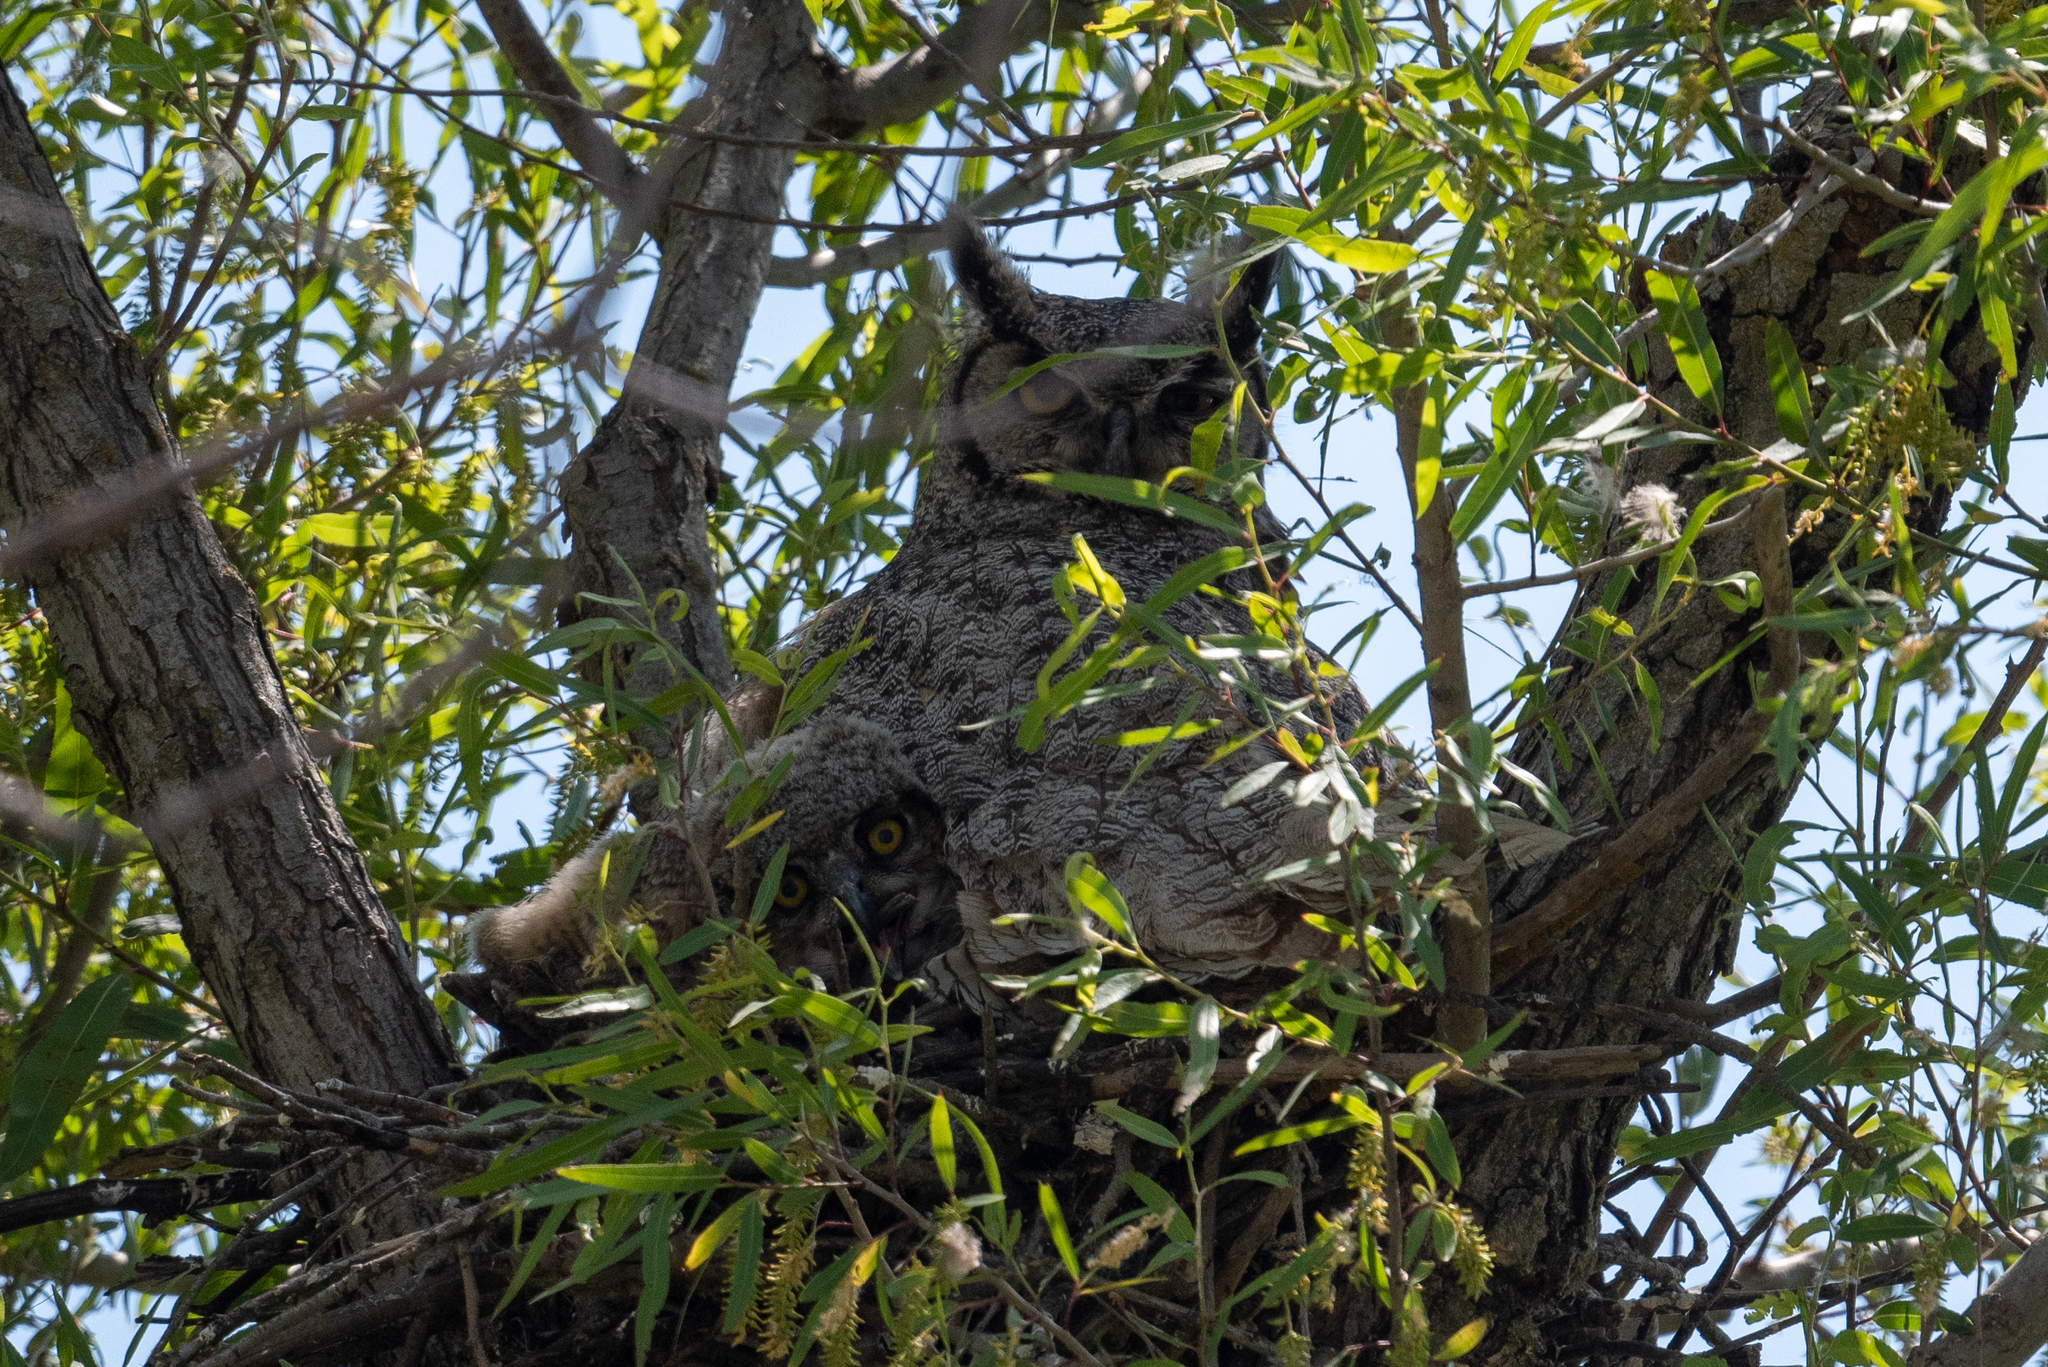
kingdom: Animalia
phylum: Chordata
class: Aves
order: Strigiformes
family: Strigidae
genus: Bubo
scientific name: Bubo virginianus
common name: Great horned owl
